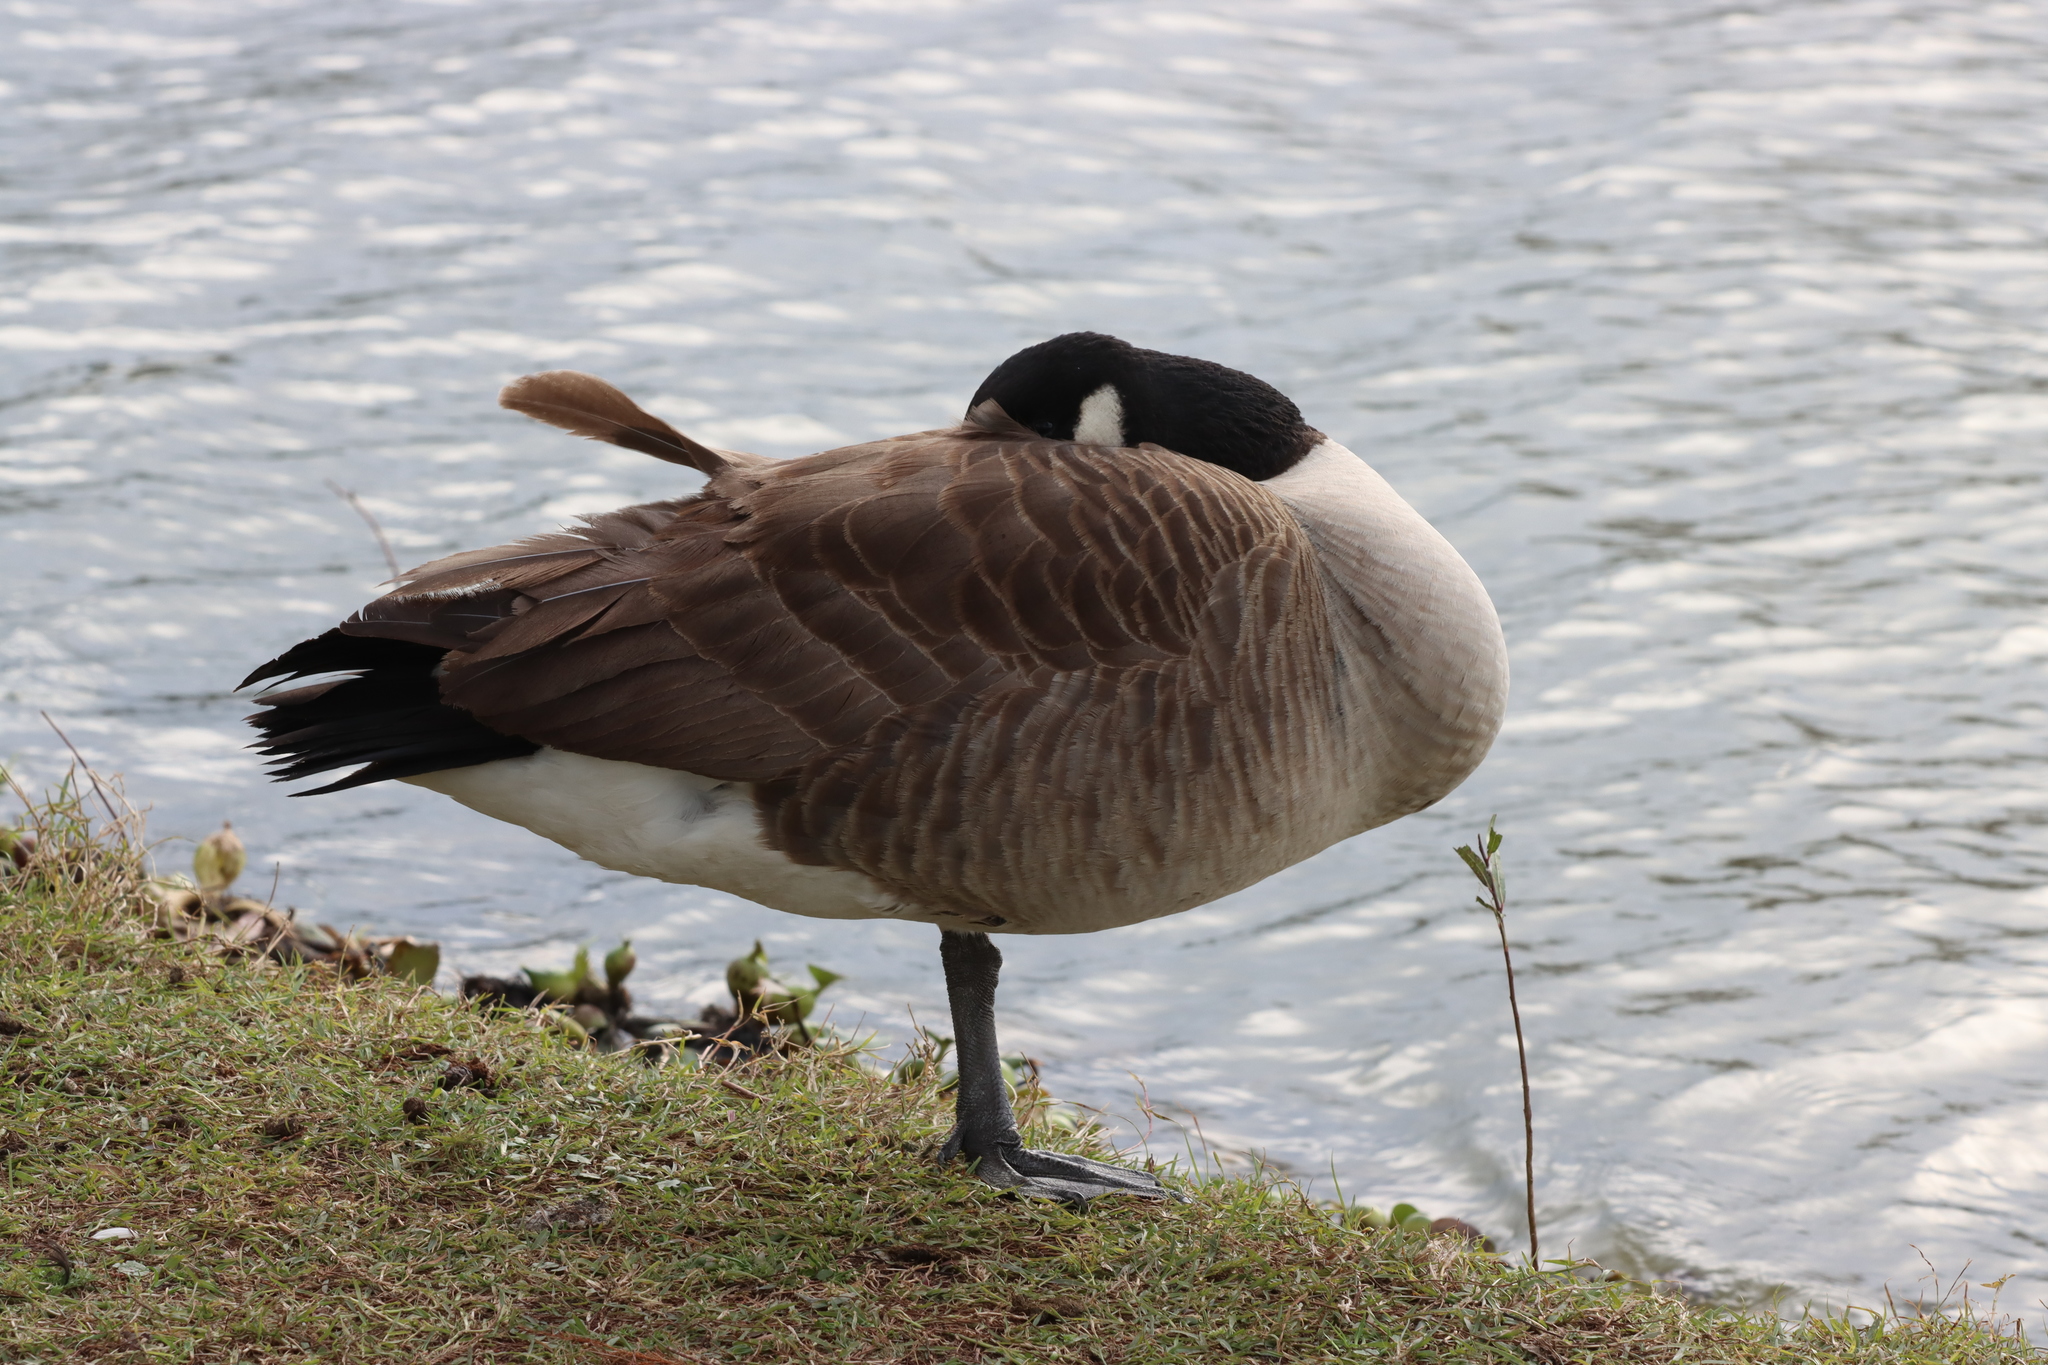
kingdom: Animalia
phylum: Chordata
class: Aves
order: Anseriformes
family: Anatidae
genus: Branta
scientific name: Branta canadensis
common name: Canada goose
